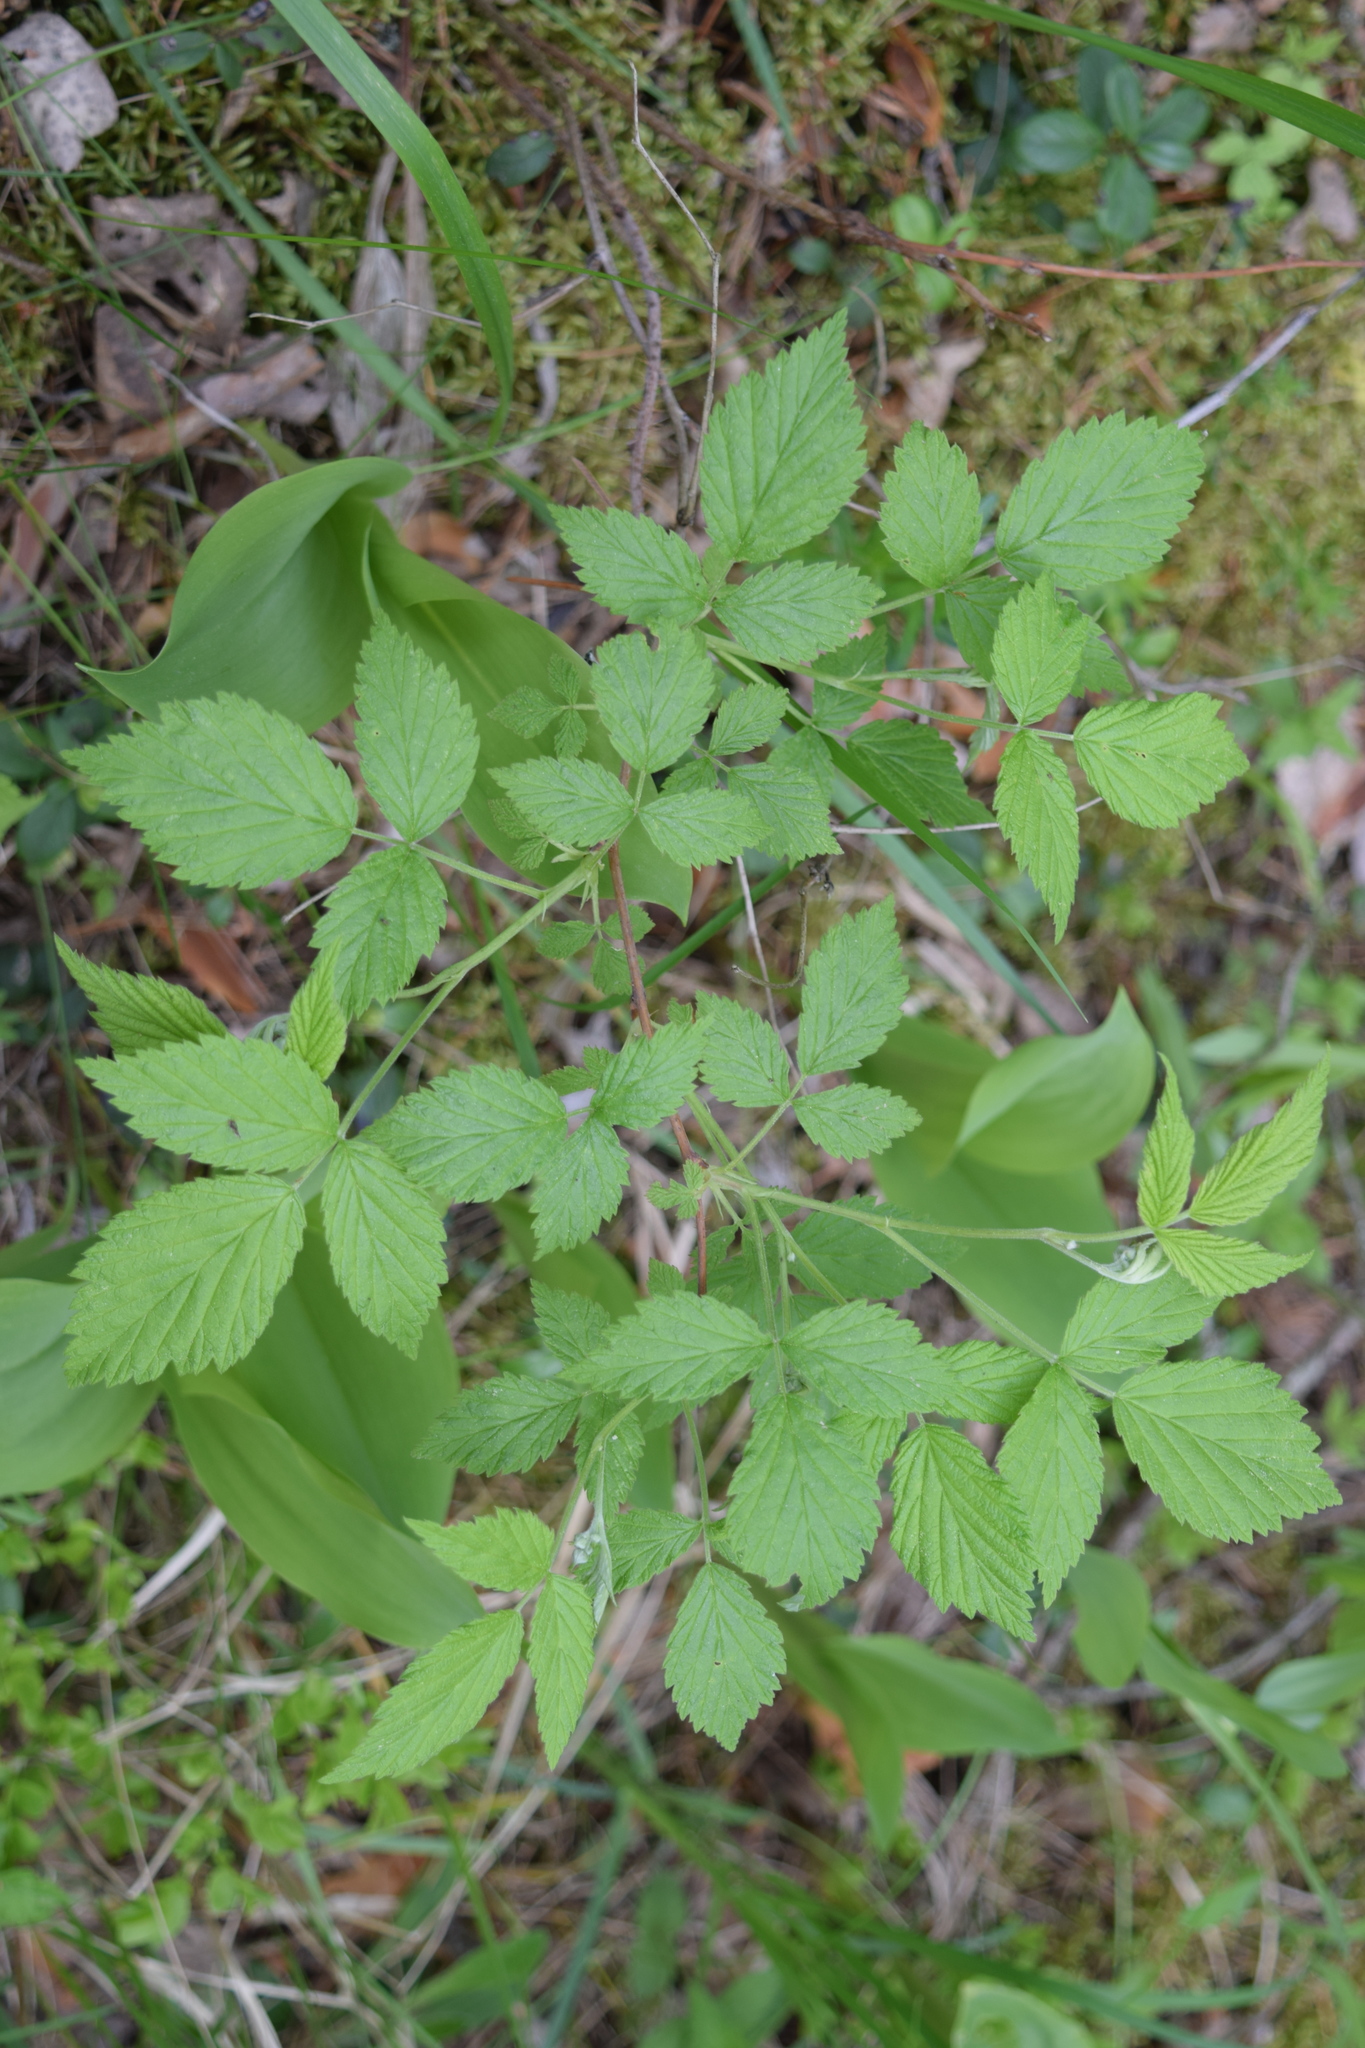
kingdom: Plantae
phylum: Tracheophyta
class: Magnoliopsida
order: Rosales
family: Rosaceae
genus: Rubus
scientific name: Rubus idaeus
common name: Raspberry
